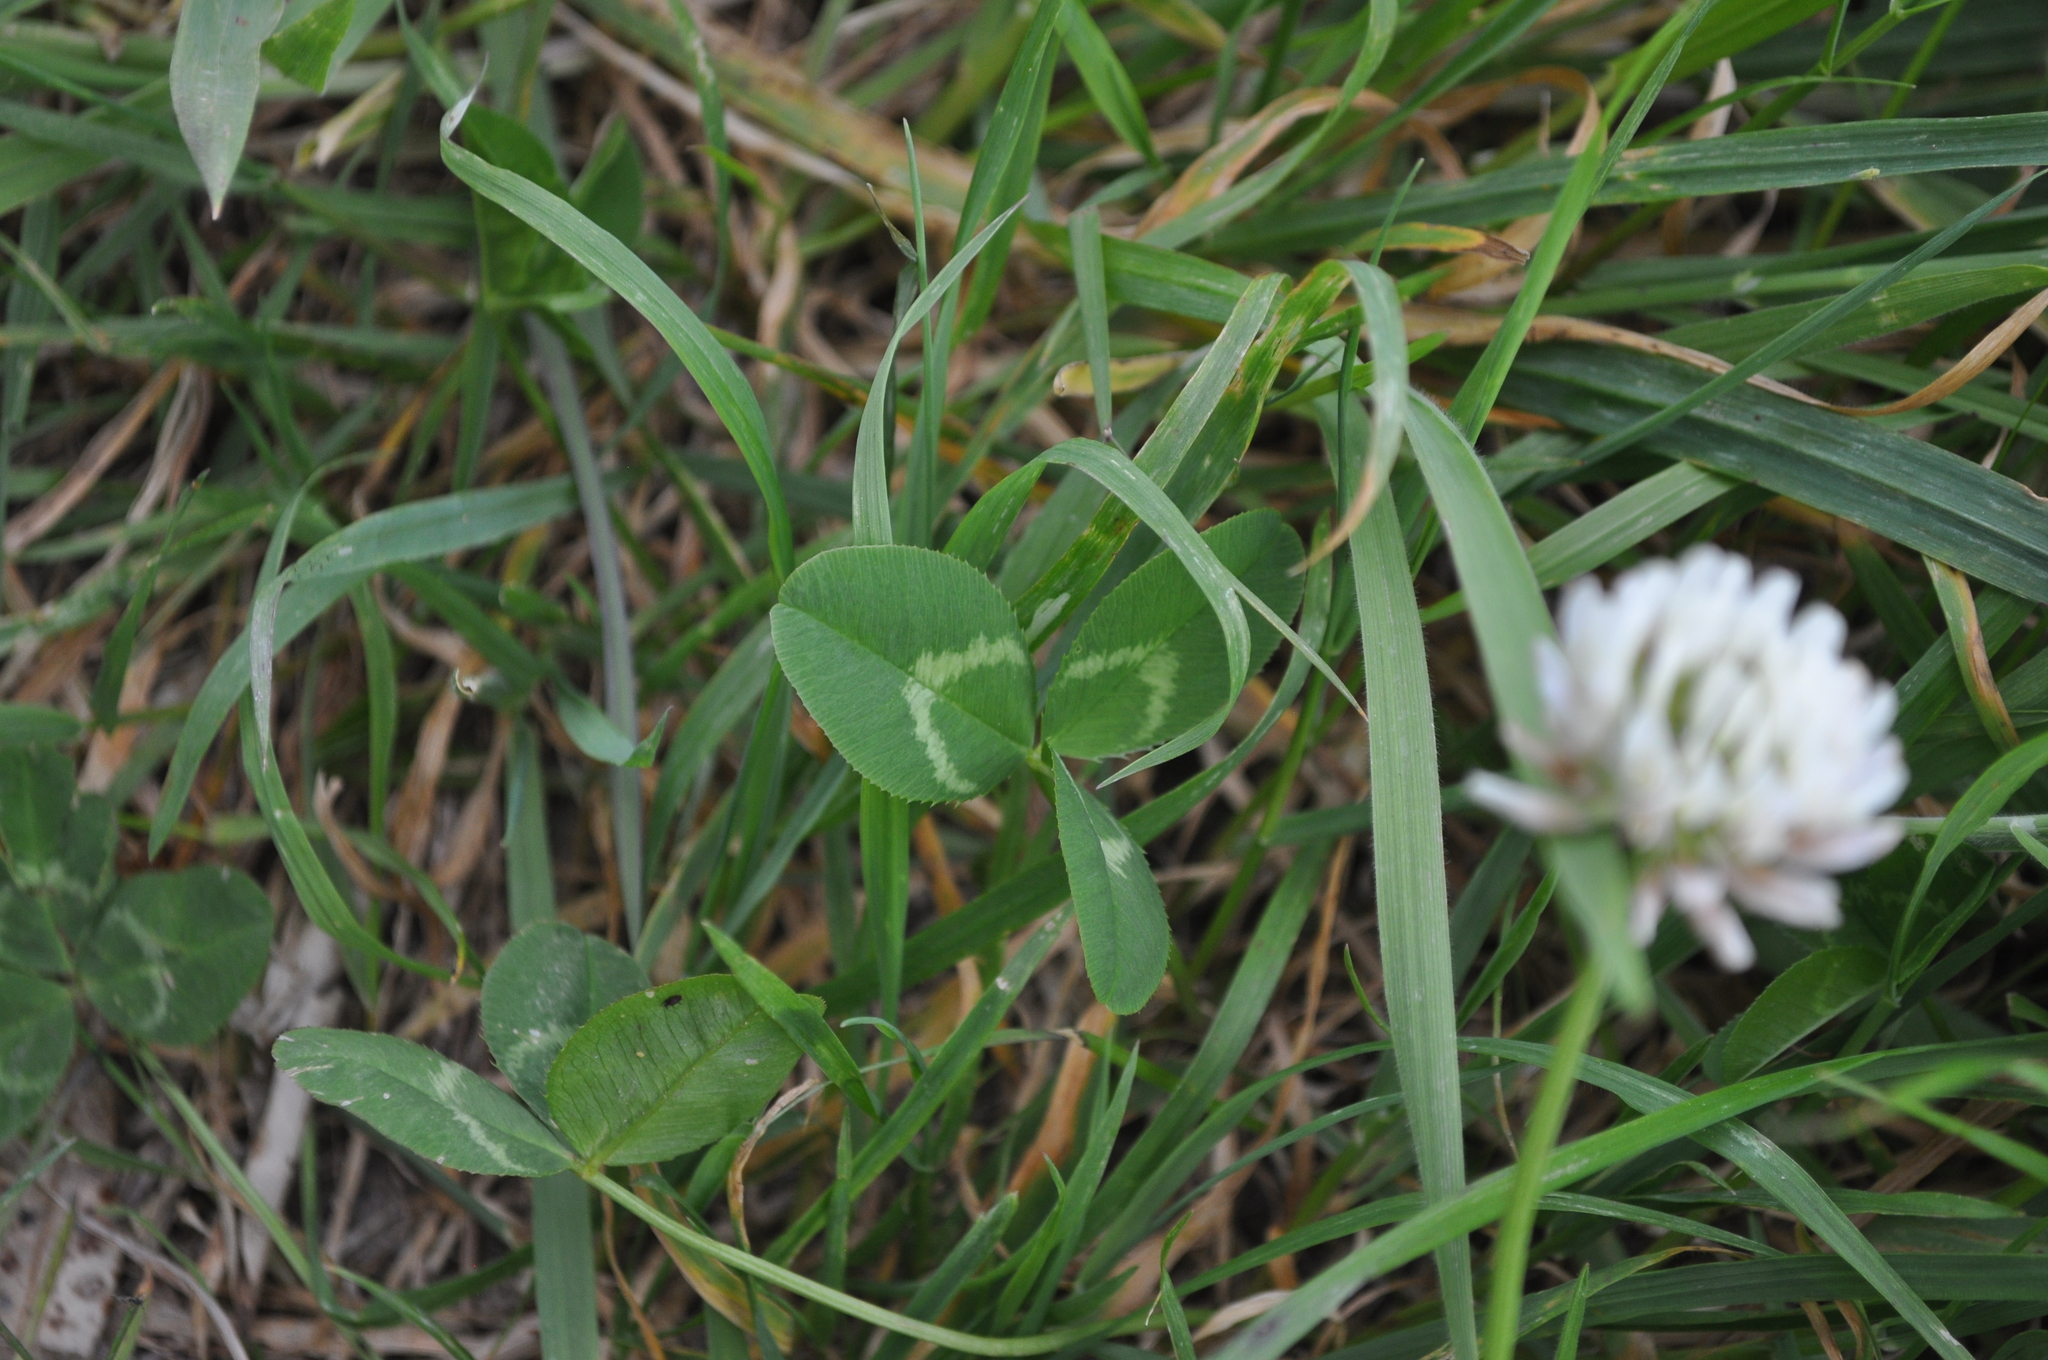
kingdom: Plantae
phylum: Tracheophyta
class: Magnoliopsida
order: Fabales
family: Fabaceae
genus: Trifolium
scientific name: Trifolium repens
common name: White clover
